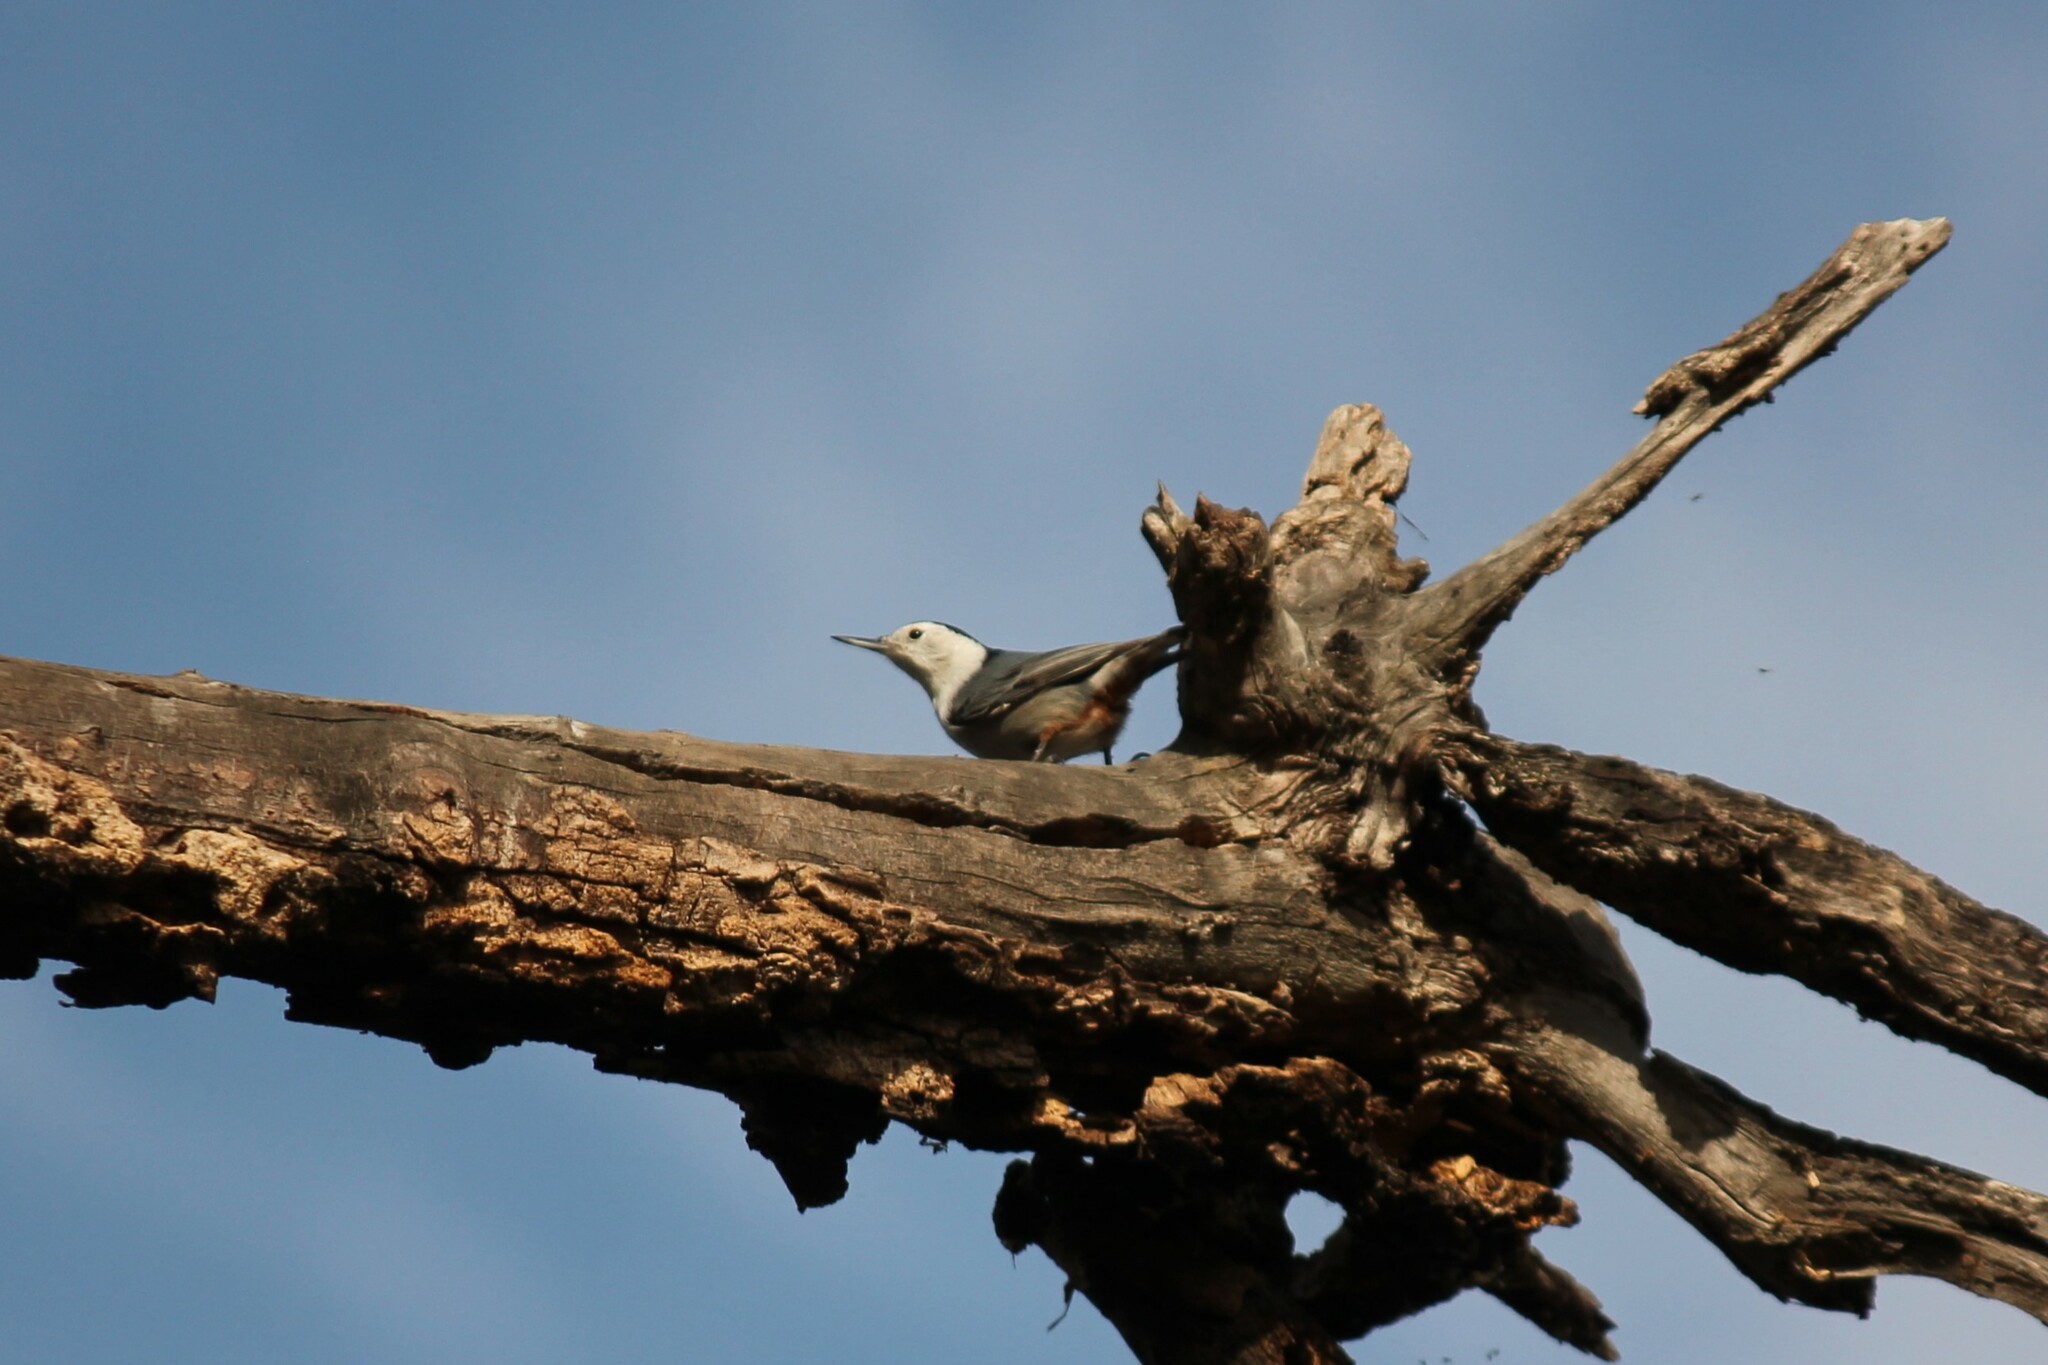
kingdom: Animalia
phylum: Chordata
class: Aves
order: Passeriformes
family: Sittidae
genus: Sitta
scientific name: Sitta carolinensis
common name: White-breasted nuthatch
